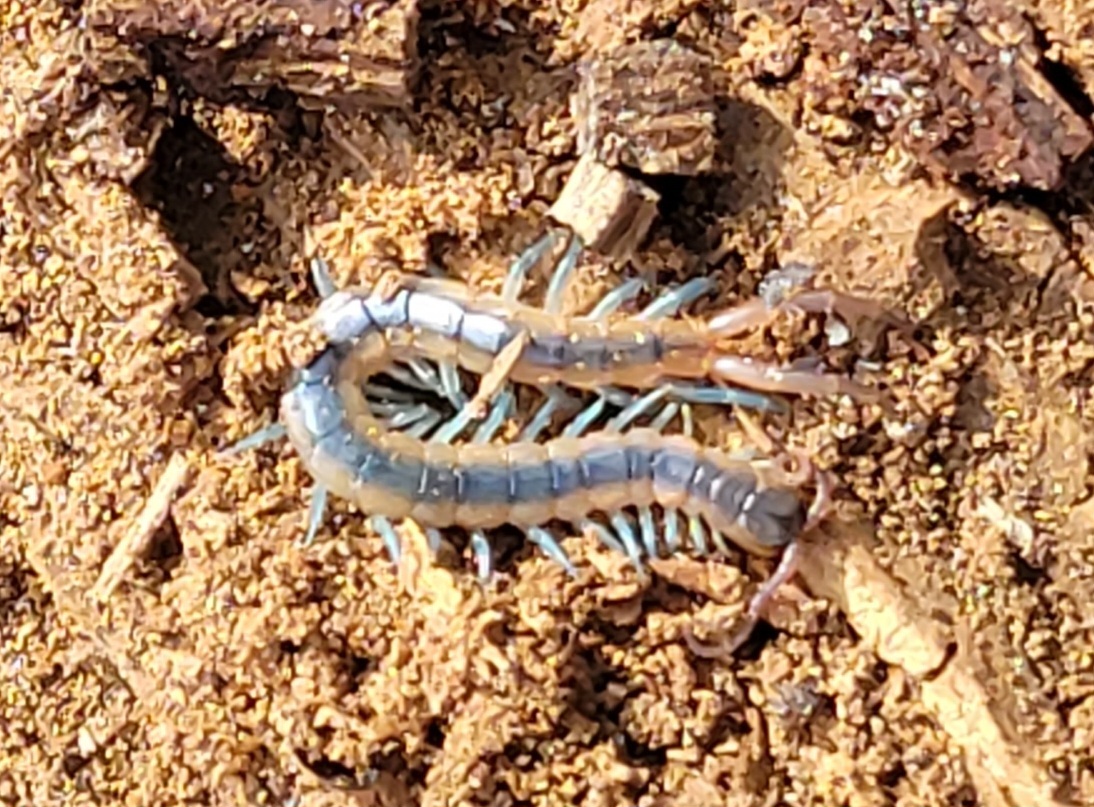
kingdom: Animalia
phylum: Arthropoda
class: Chilopoda
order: Scolopendromorpha
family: Scolopendridae
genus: Scolopendra
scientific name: Scolopendra viridis
